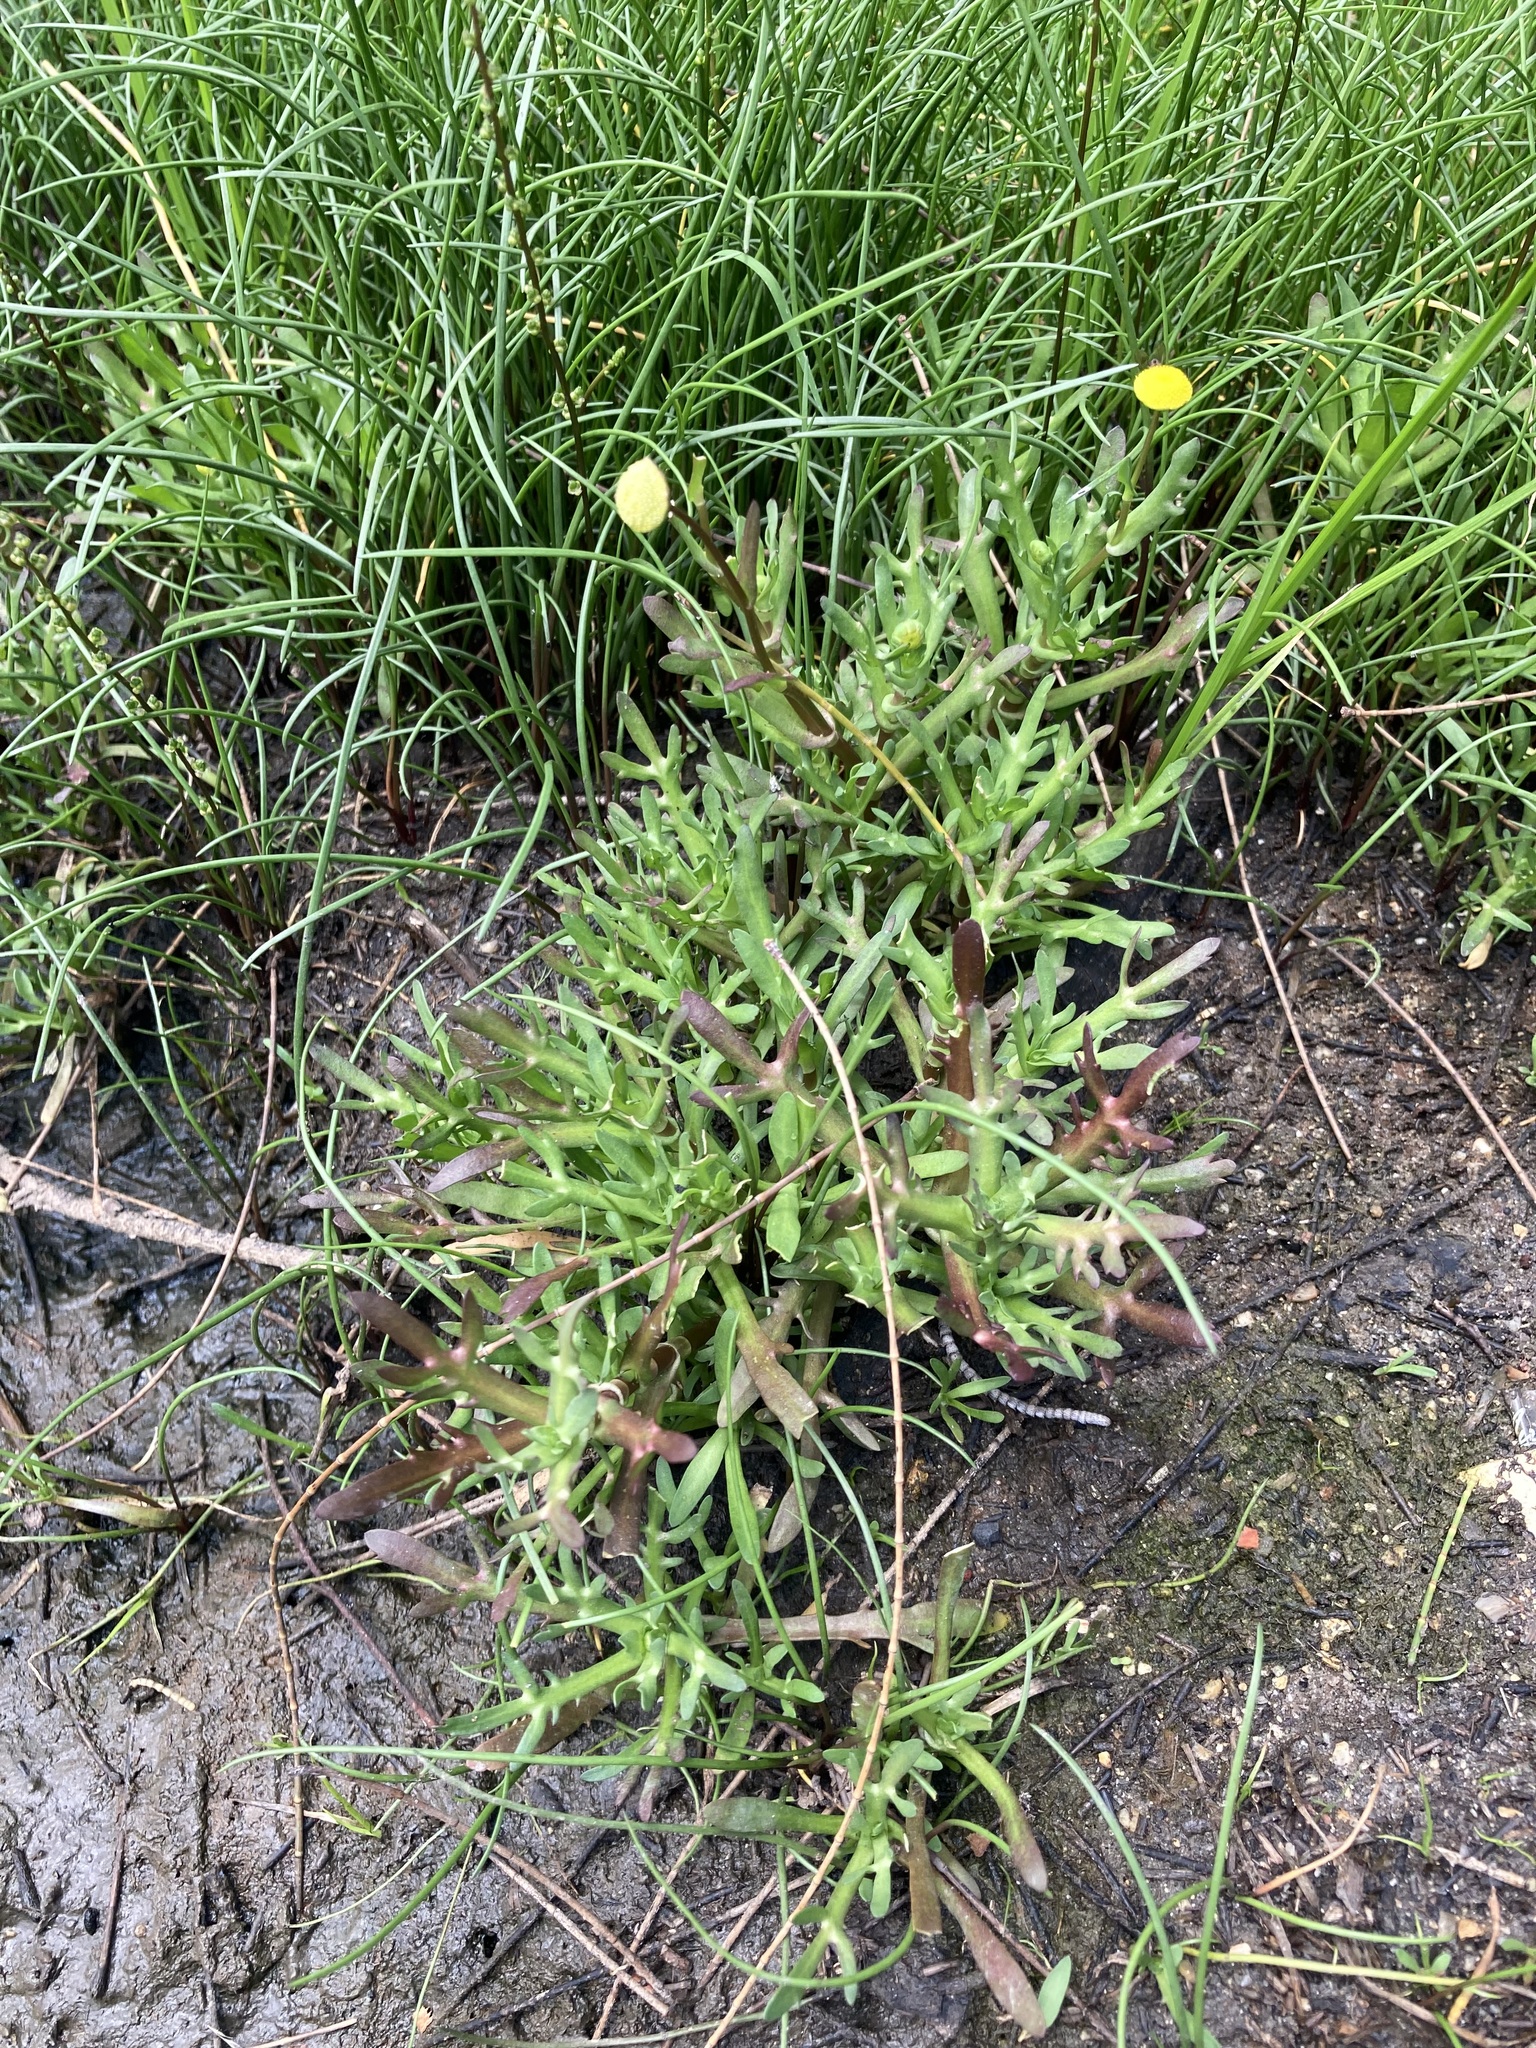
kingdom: Plantae
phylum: Tracheophyta
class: Magnoliopsida
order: Asterales
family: Asteraceae
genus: Cotula
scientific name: Cotula coronopifolia
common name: Buttonweed
